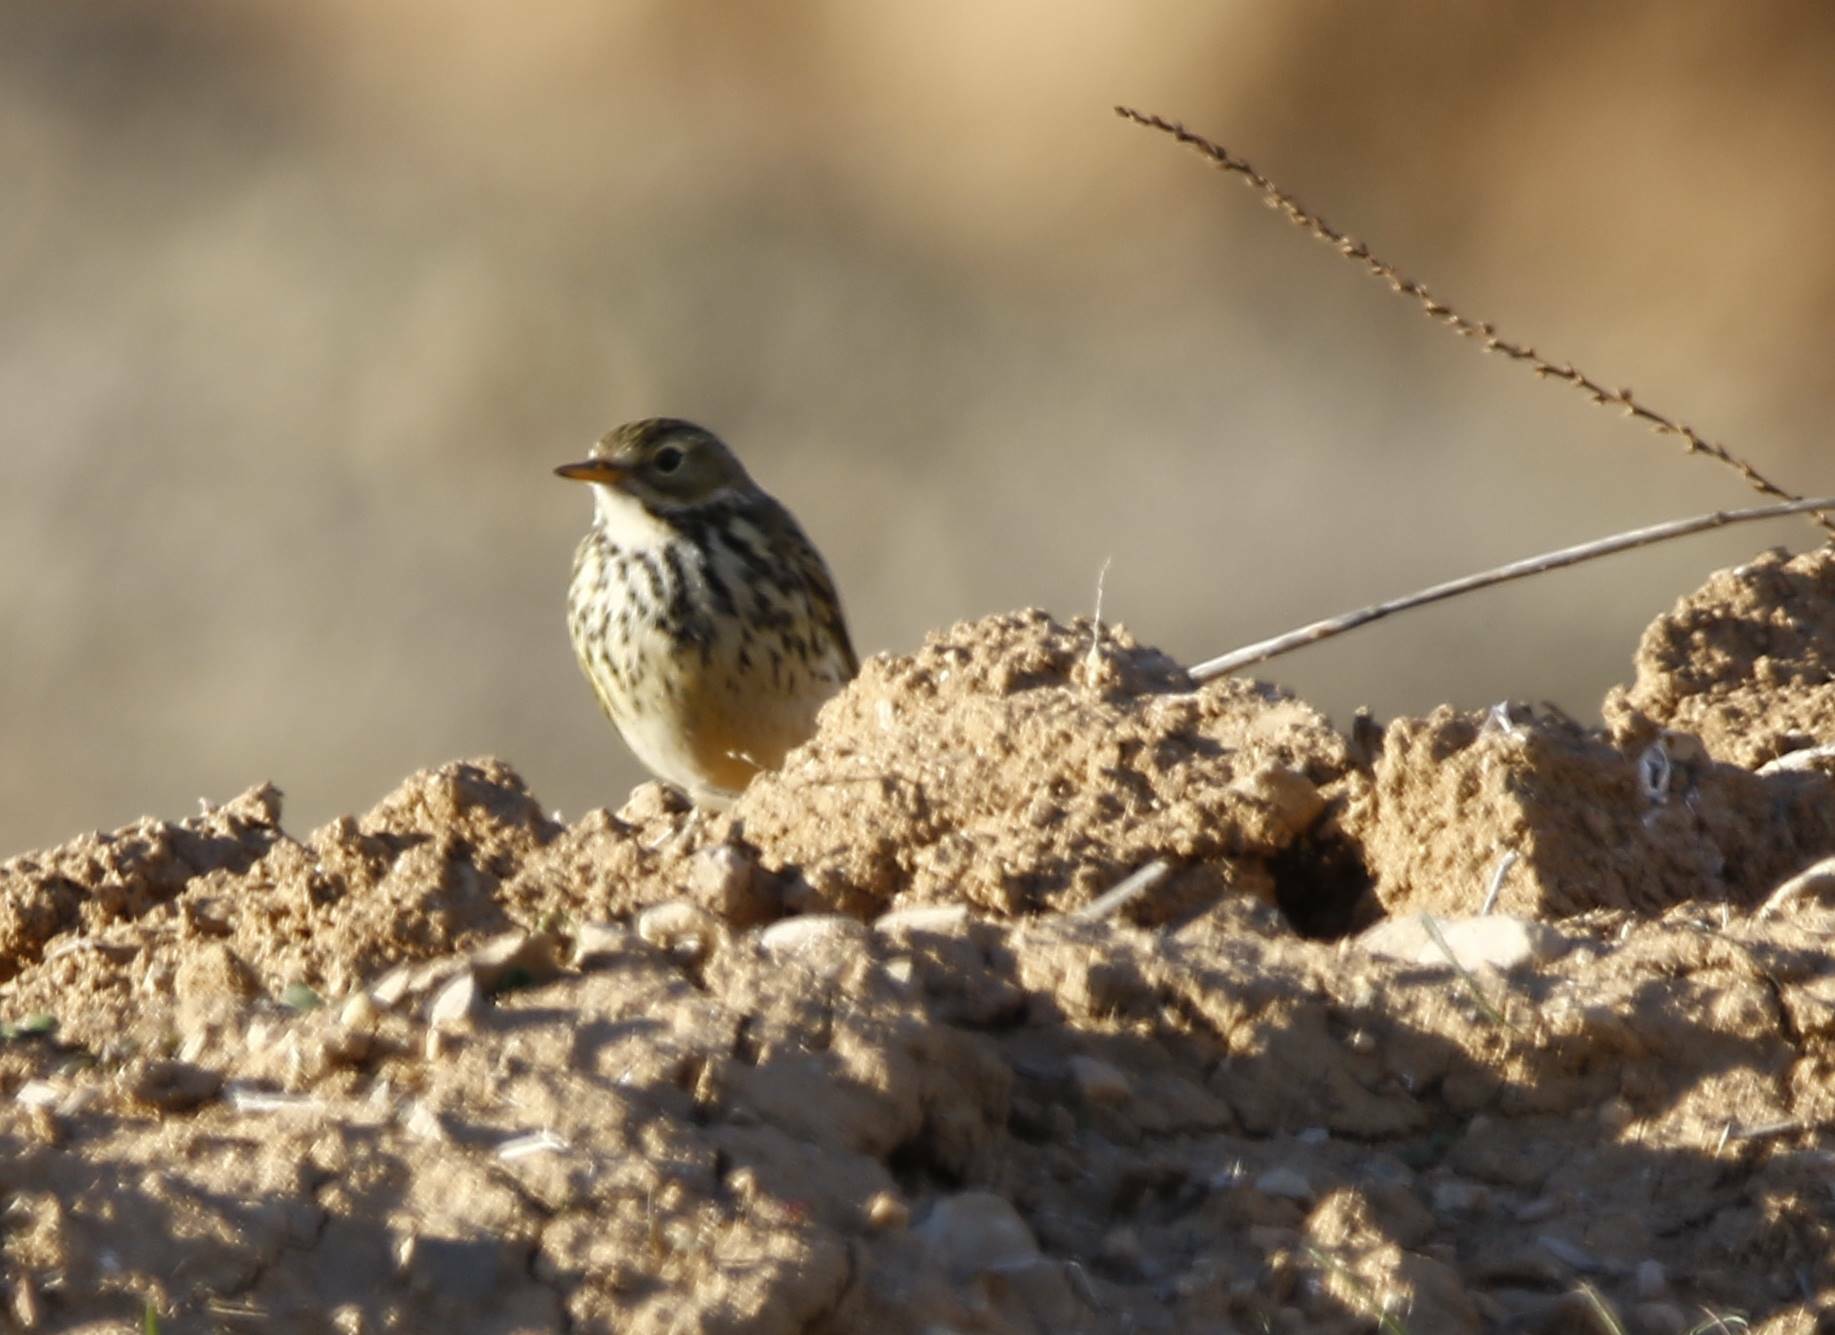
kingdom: Animalia
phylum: Chordata
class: Aves
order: Passeriformes
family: Motacillidae
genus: Anthus
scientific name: Anthus pratensis
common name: Meadow pipit
